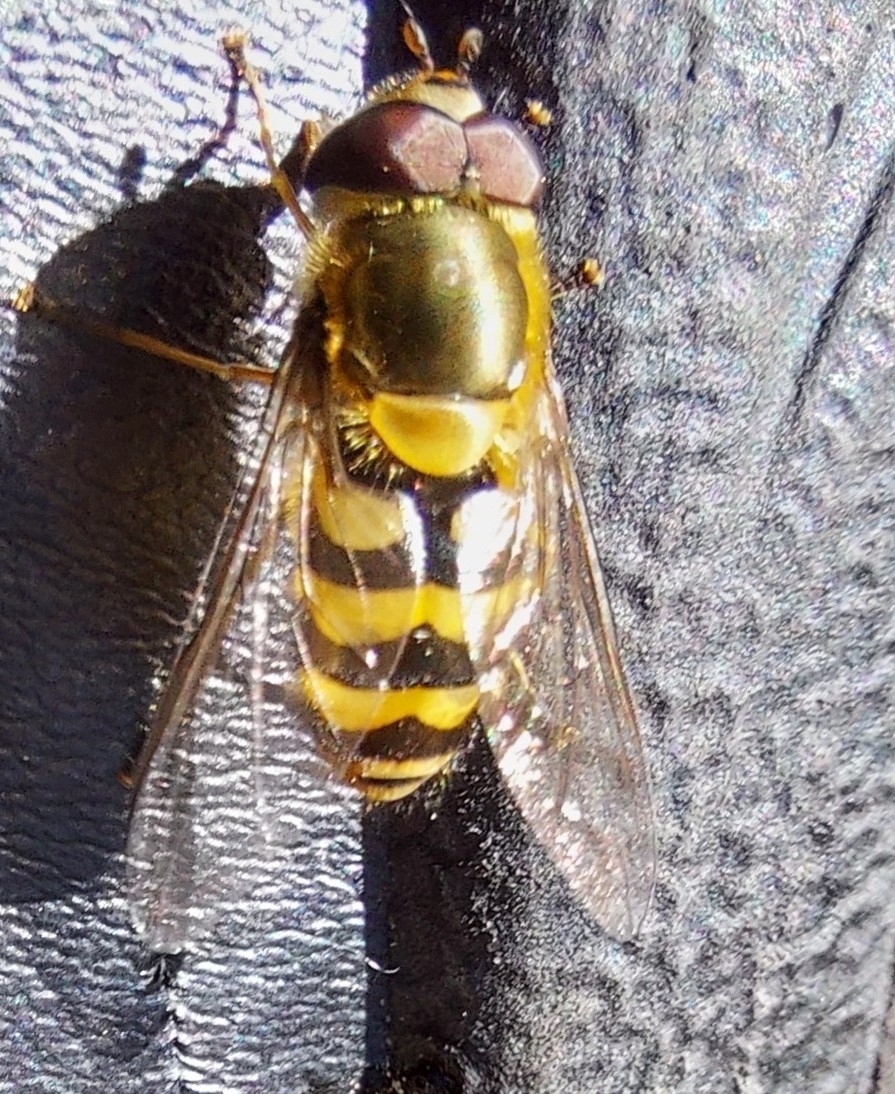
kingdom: Animalia
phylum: Arthropoda
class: Insecta
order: Diptera
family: Syrphidae
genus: Syrphus
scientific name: Syrphus
